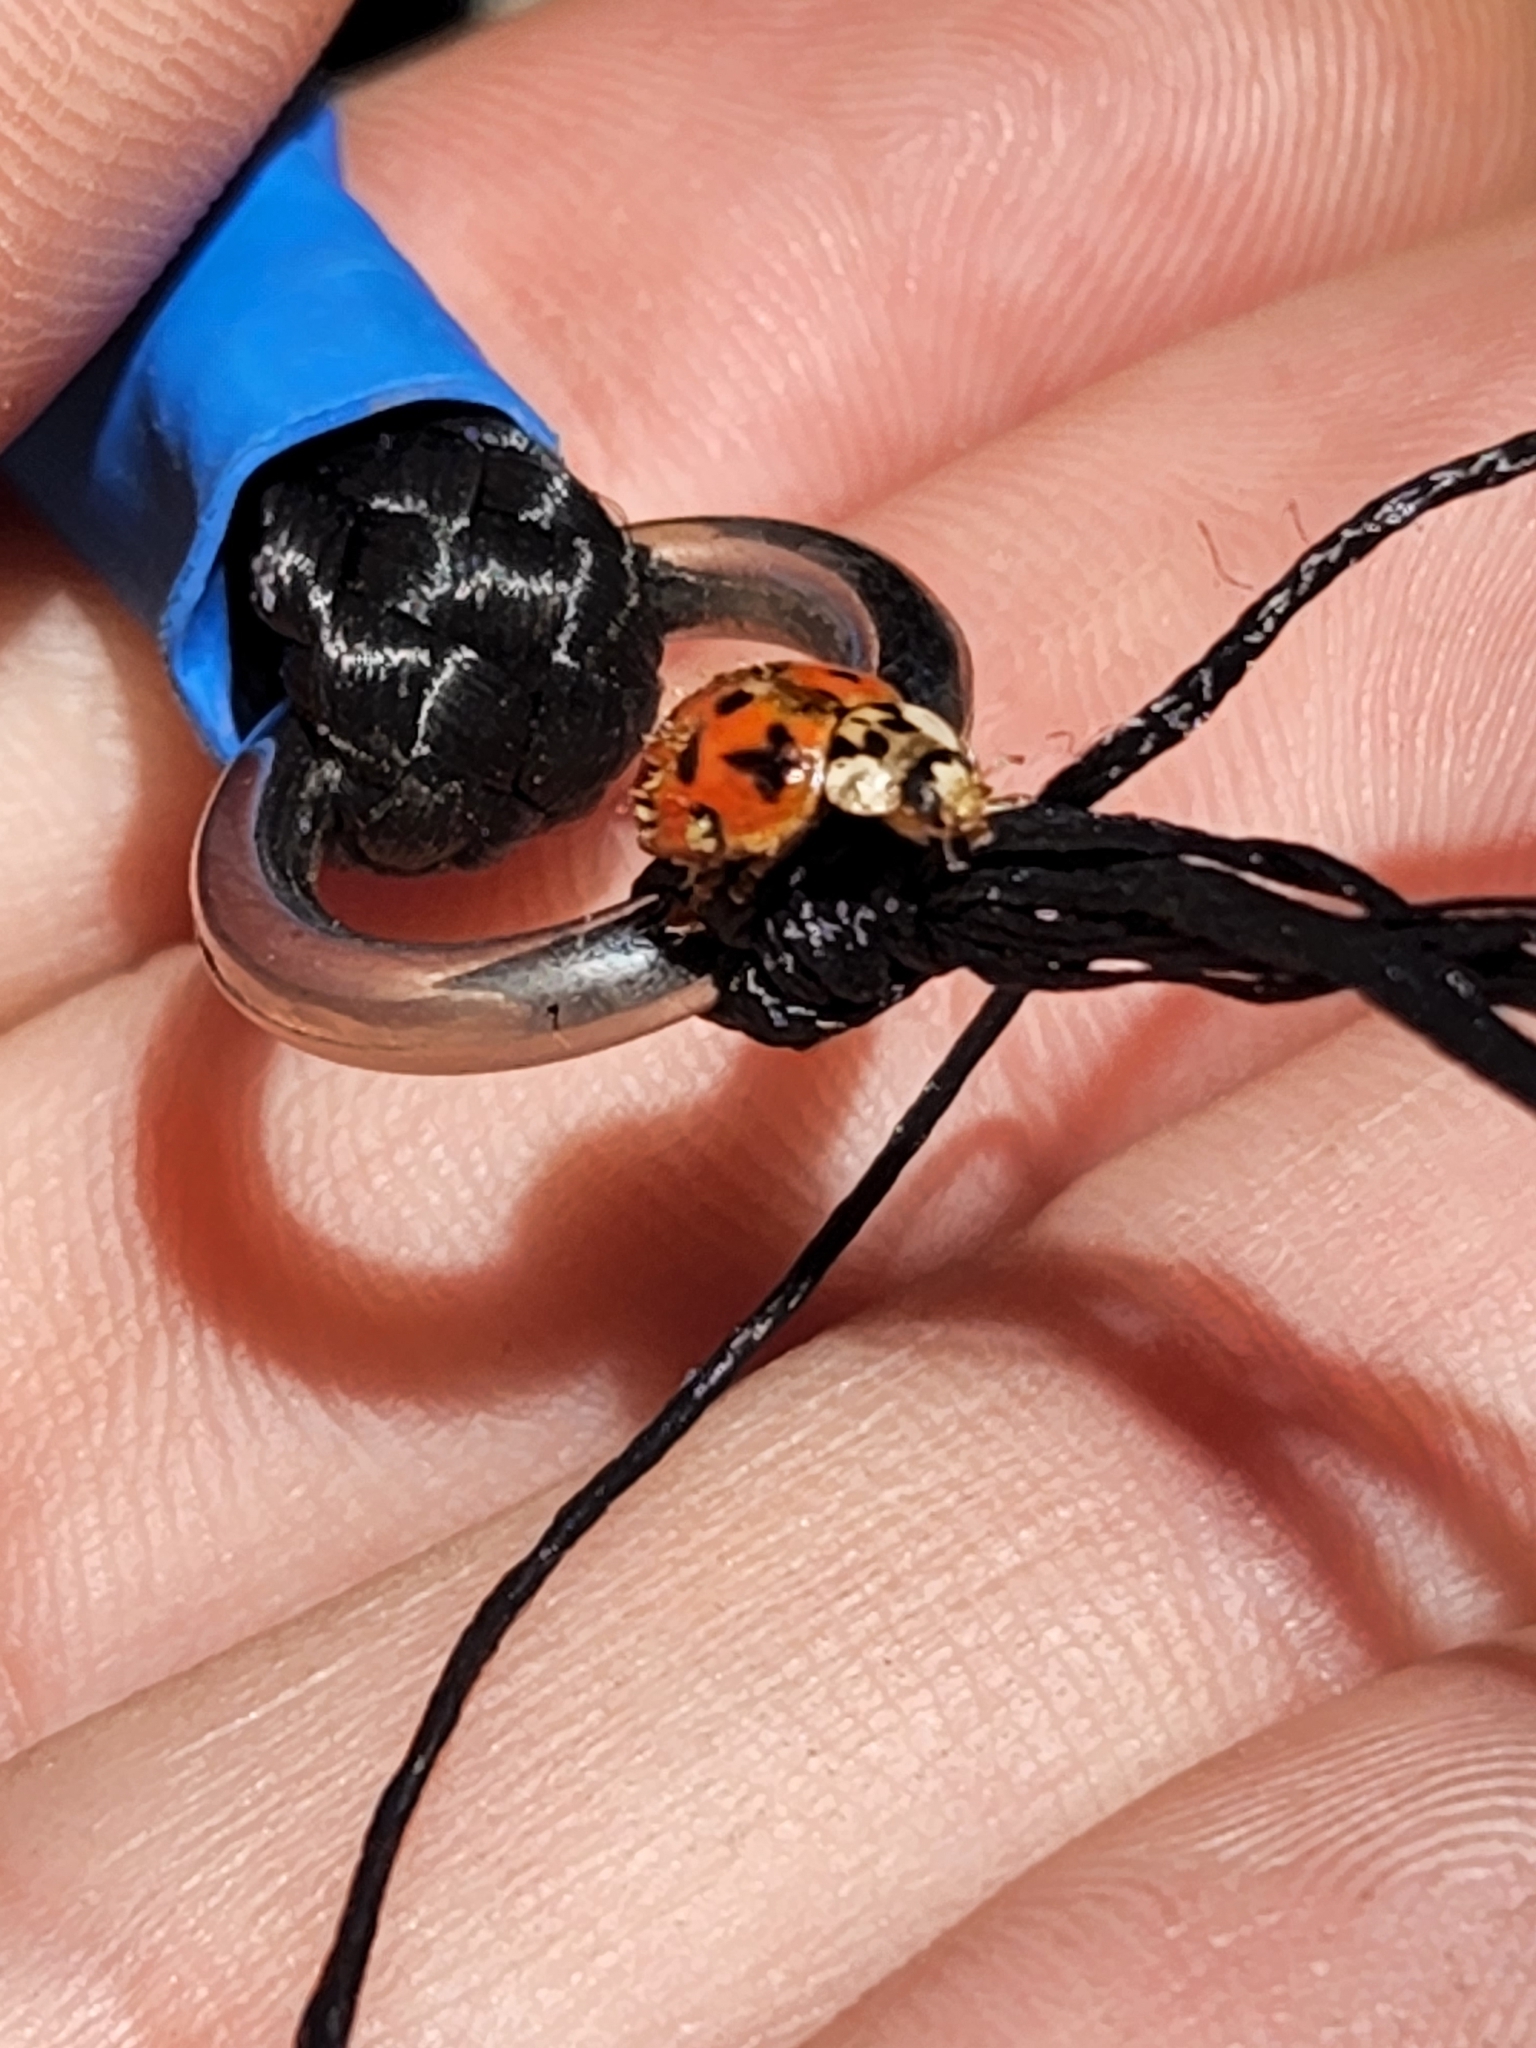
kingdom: Fungi
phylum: Ascomycota
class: Laboulbeniomycetes
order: Laboulbeniales
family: Laboulbeniaceae
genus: Hesperomyces
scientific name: Hesperomyces harmoniae
